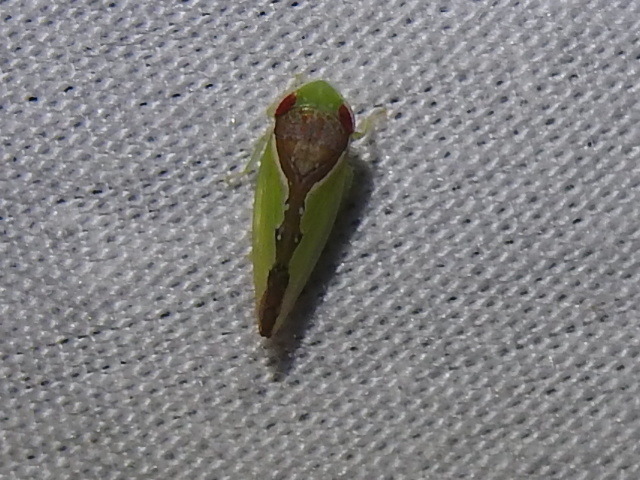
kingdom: Animalia
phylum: Arthropoda
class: Insecta
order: Hemiptera
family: Cicadellidae
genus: Omansobara ing
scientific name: Omansobara ing Omansobara palliolata
